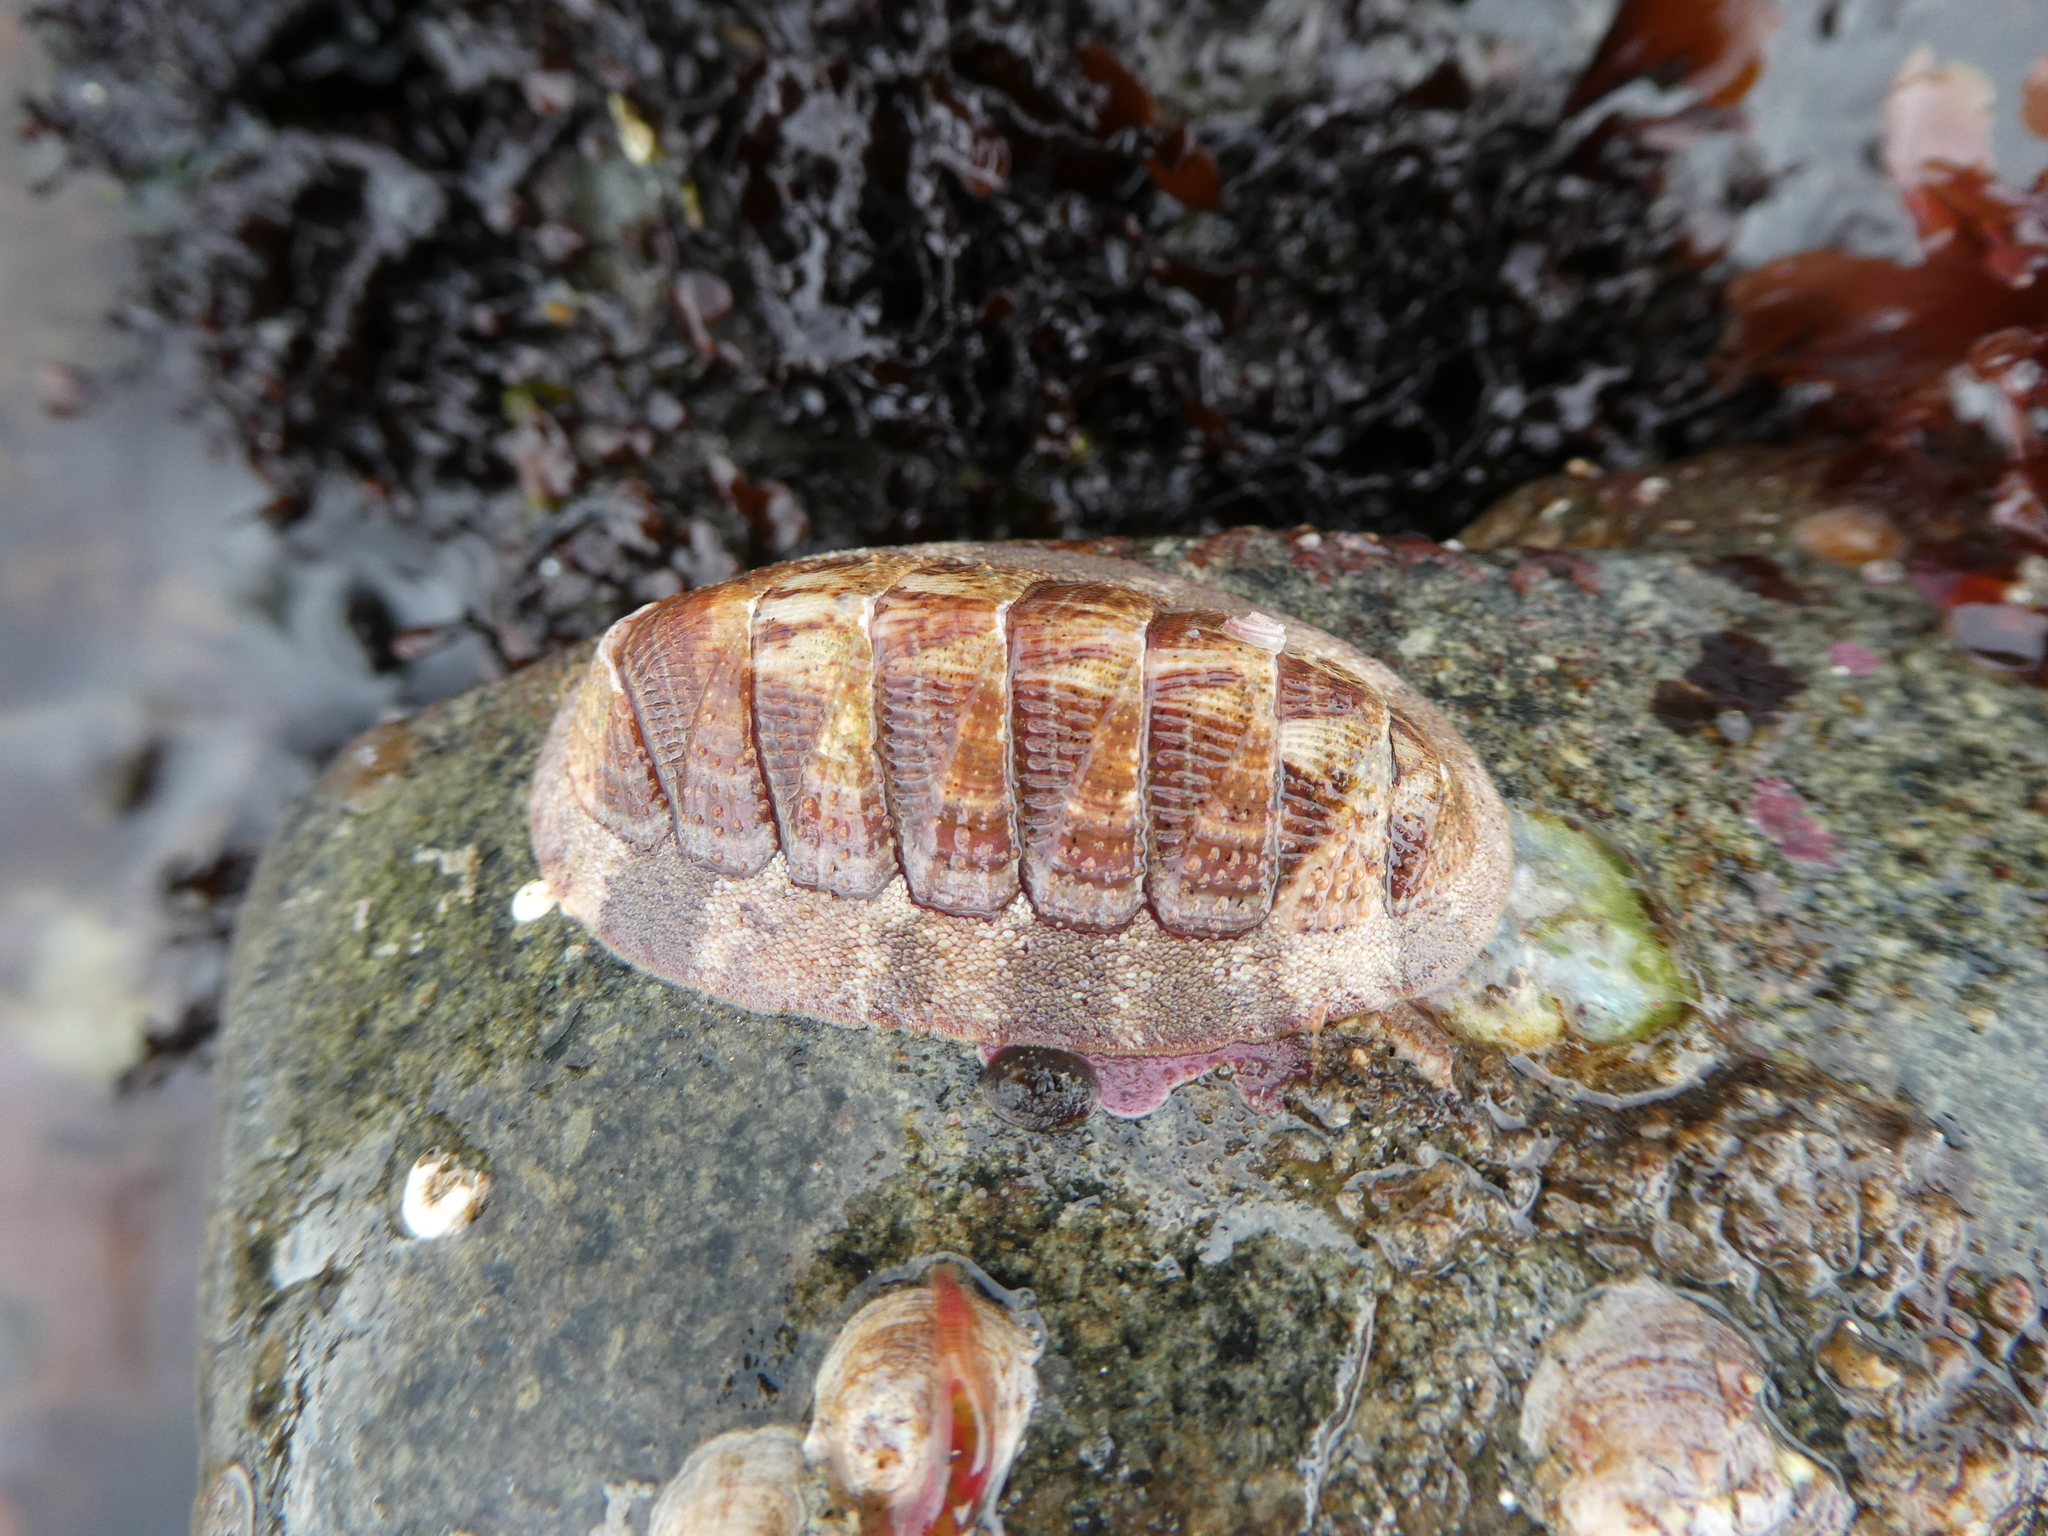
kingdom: Animalia
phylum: Mollusca
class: Polyplacophora
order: Chitonida
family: Ischnochitonidae
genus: Lepidozona
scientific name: Lepidozona mertensii
